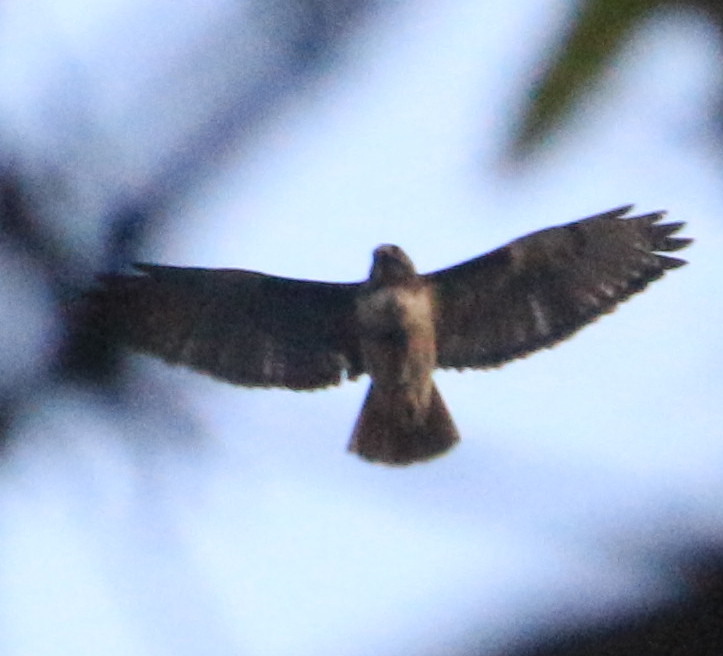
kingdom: Animalia
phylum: Chordata
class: Aves
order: Accipitriformes
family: Accipitridae
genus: Buteo
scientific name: Buteo jamaicensis
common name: Red-tailed hawk
